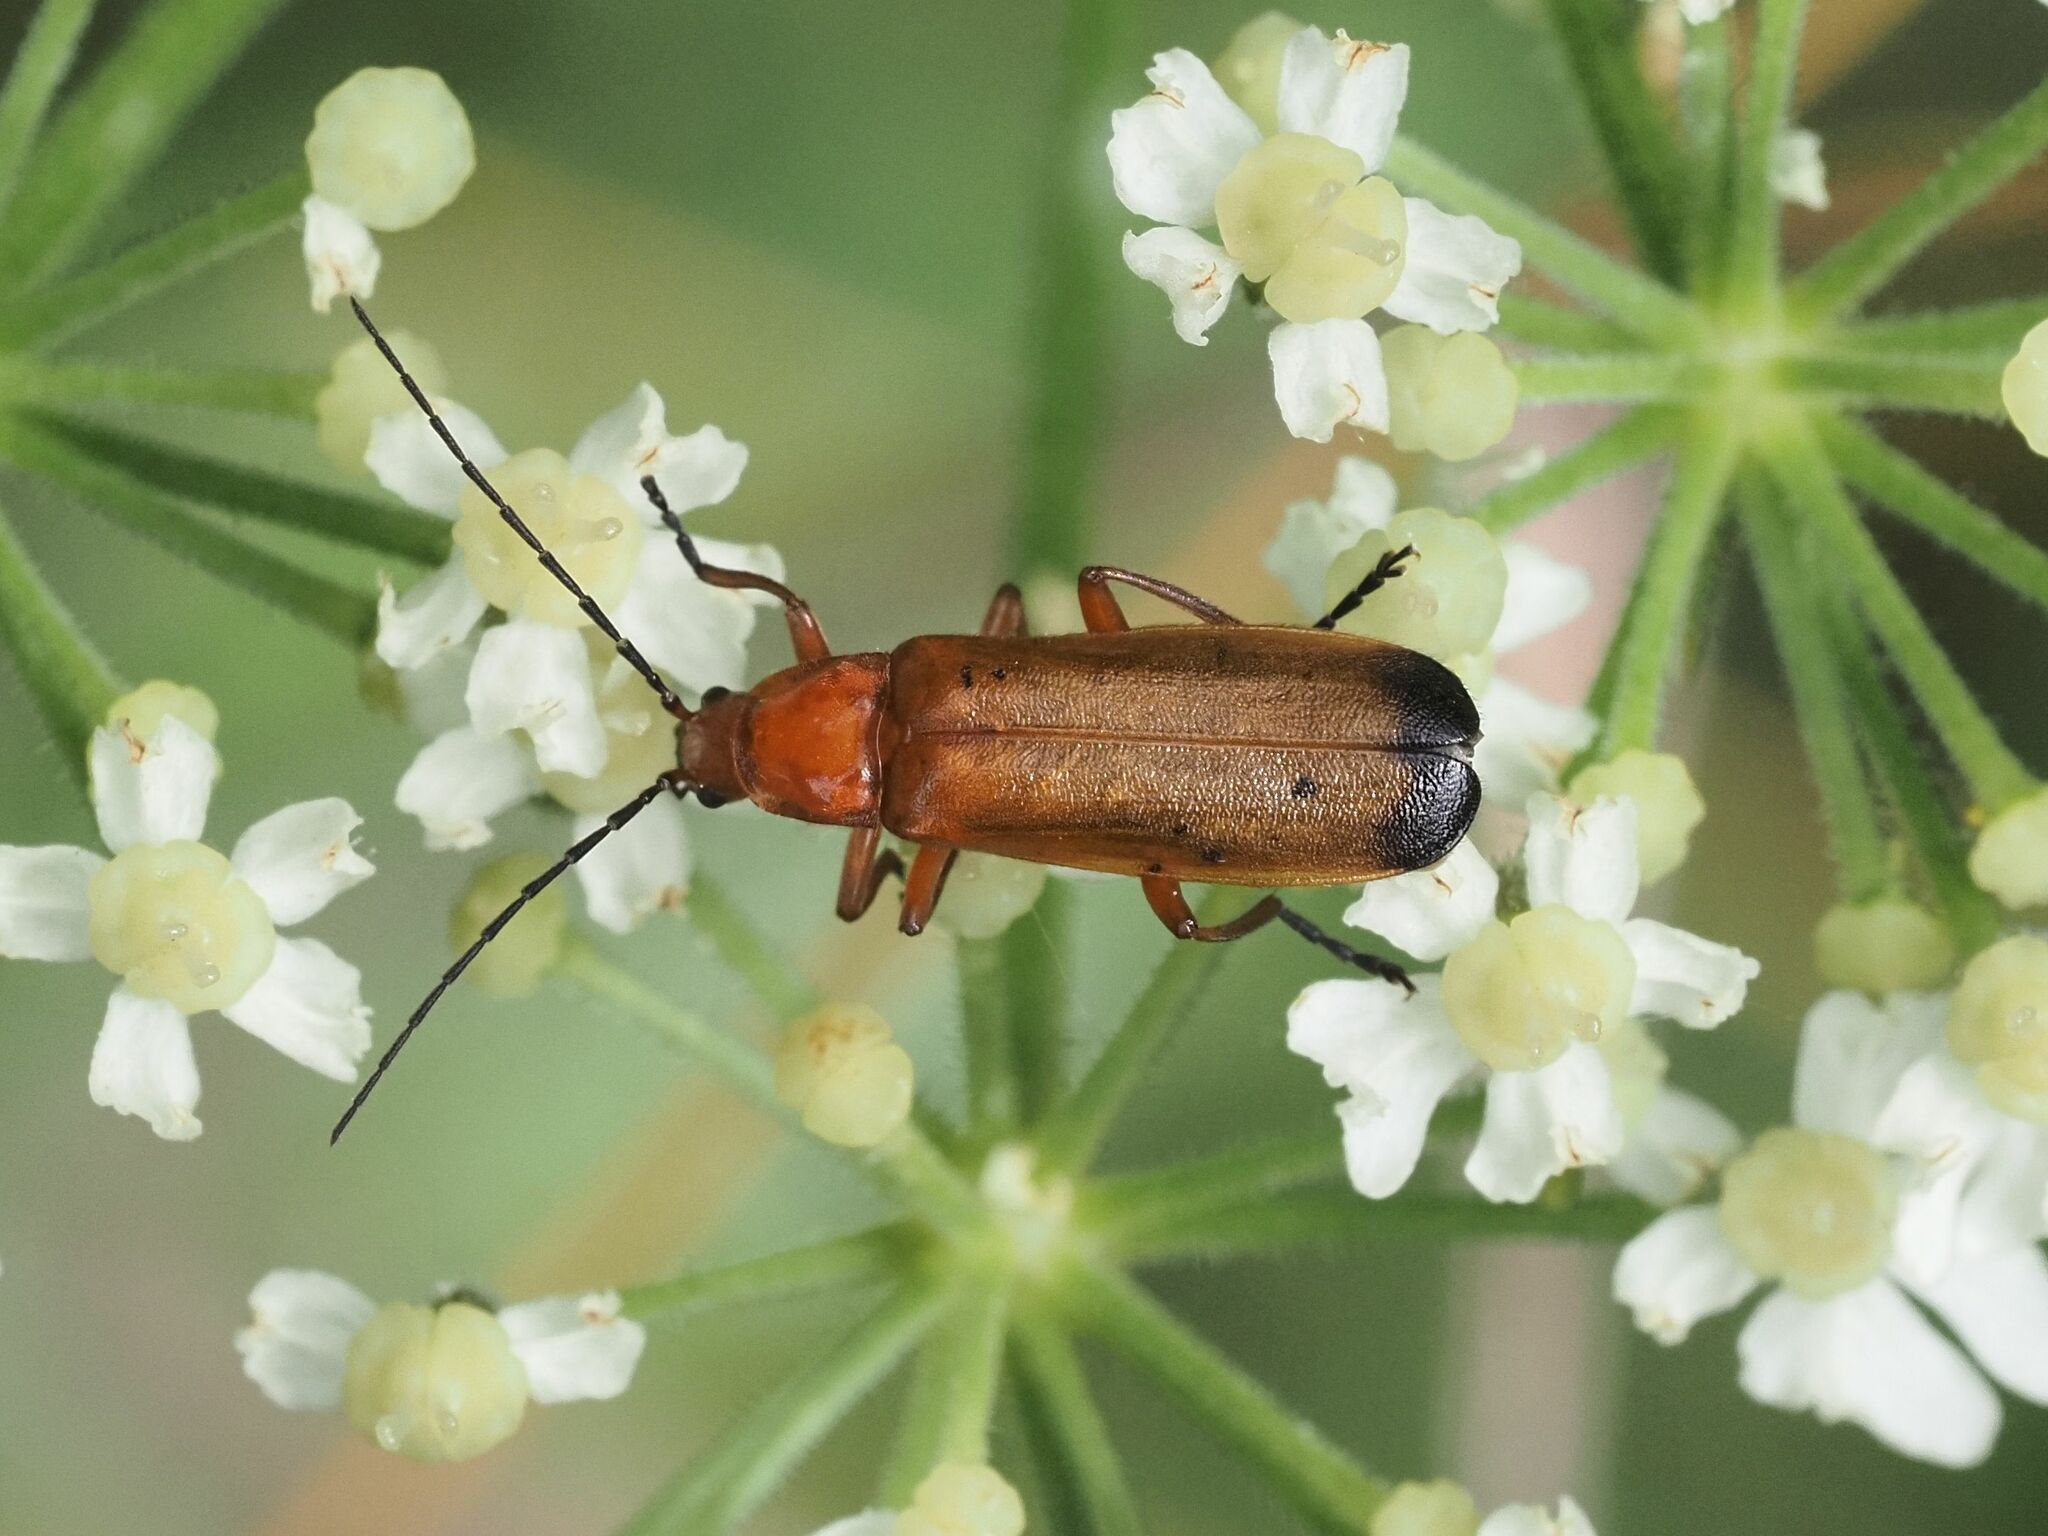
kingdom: Animalia
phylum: Arthropoda
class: Insecta
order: Coleoptera
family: Cantharidae
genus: Rhagonycha
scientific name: Rhagonycha fulva
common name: Common red soldier beetle
